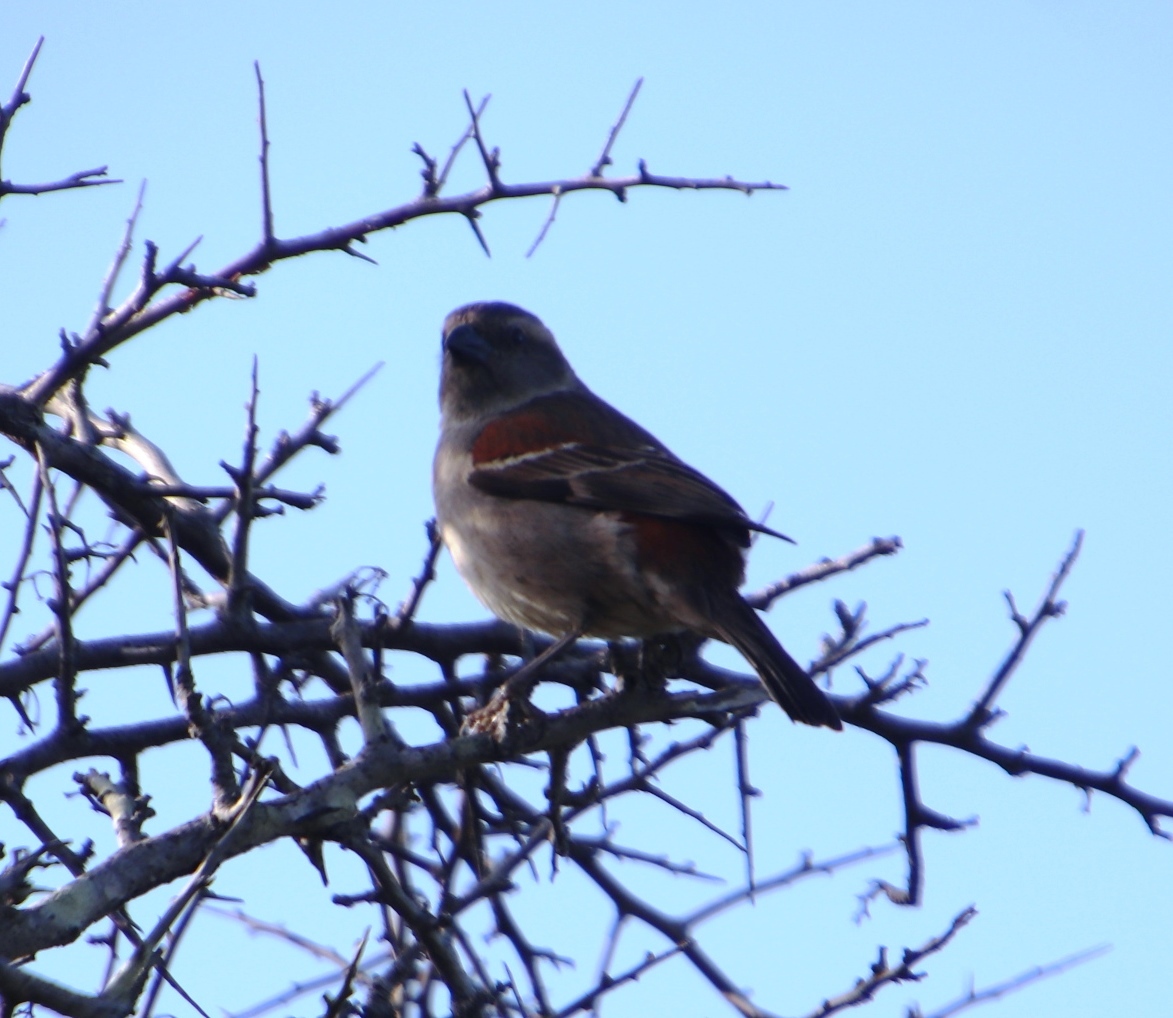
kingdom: Animalia
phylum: Chordata
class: Aves
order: Passeriformes
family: Passeridae
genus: Passer
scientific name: Passer melanurus
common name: Cape sparrow
